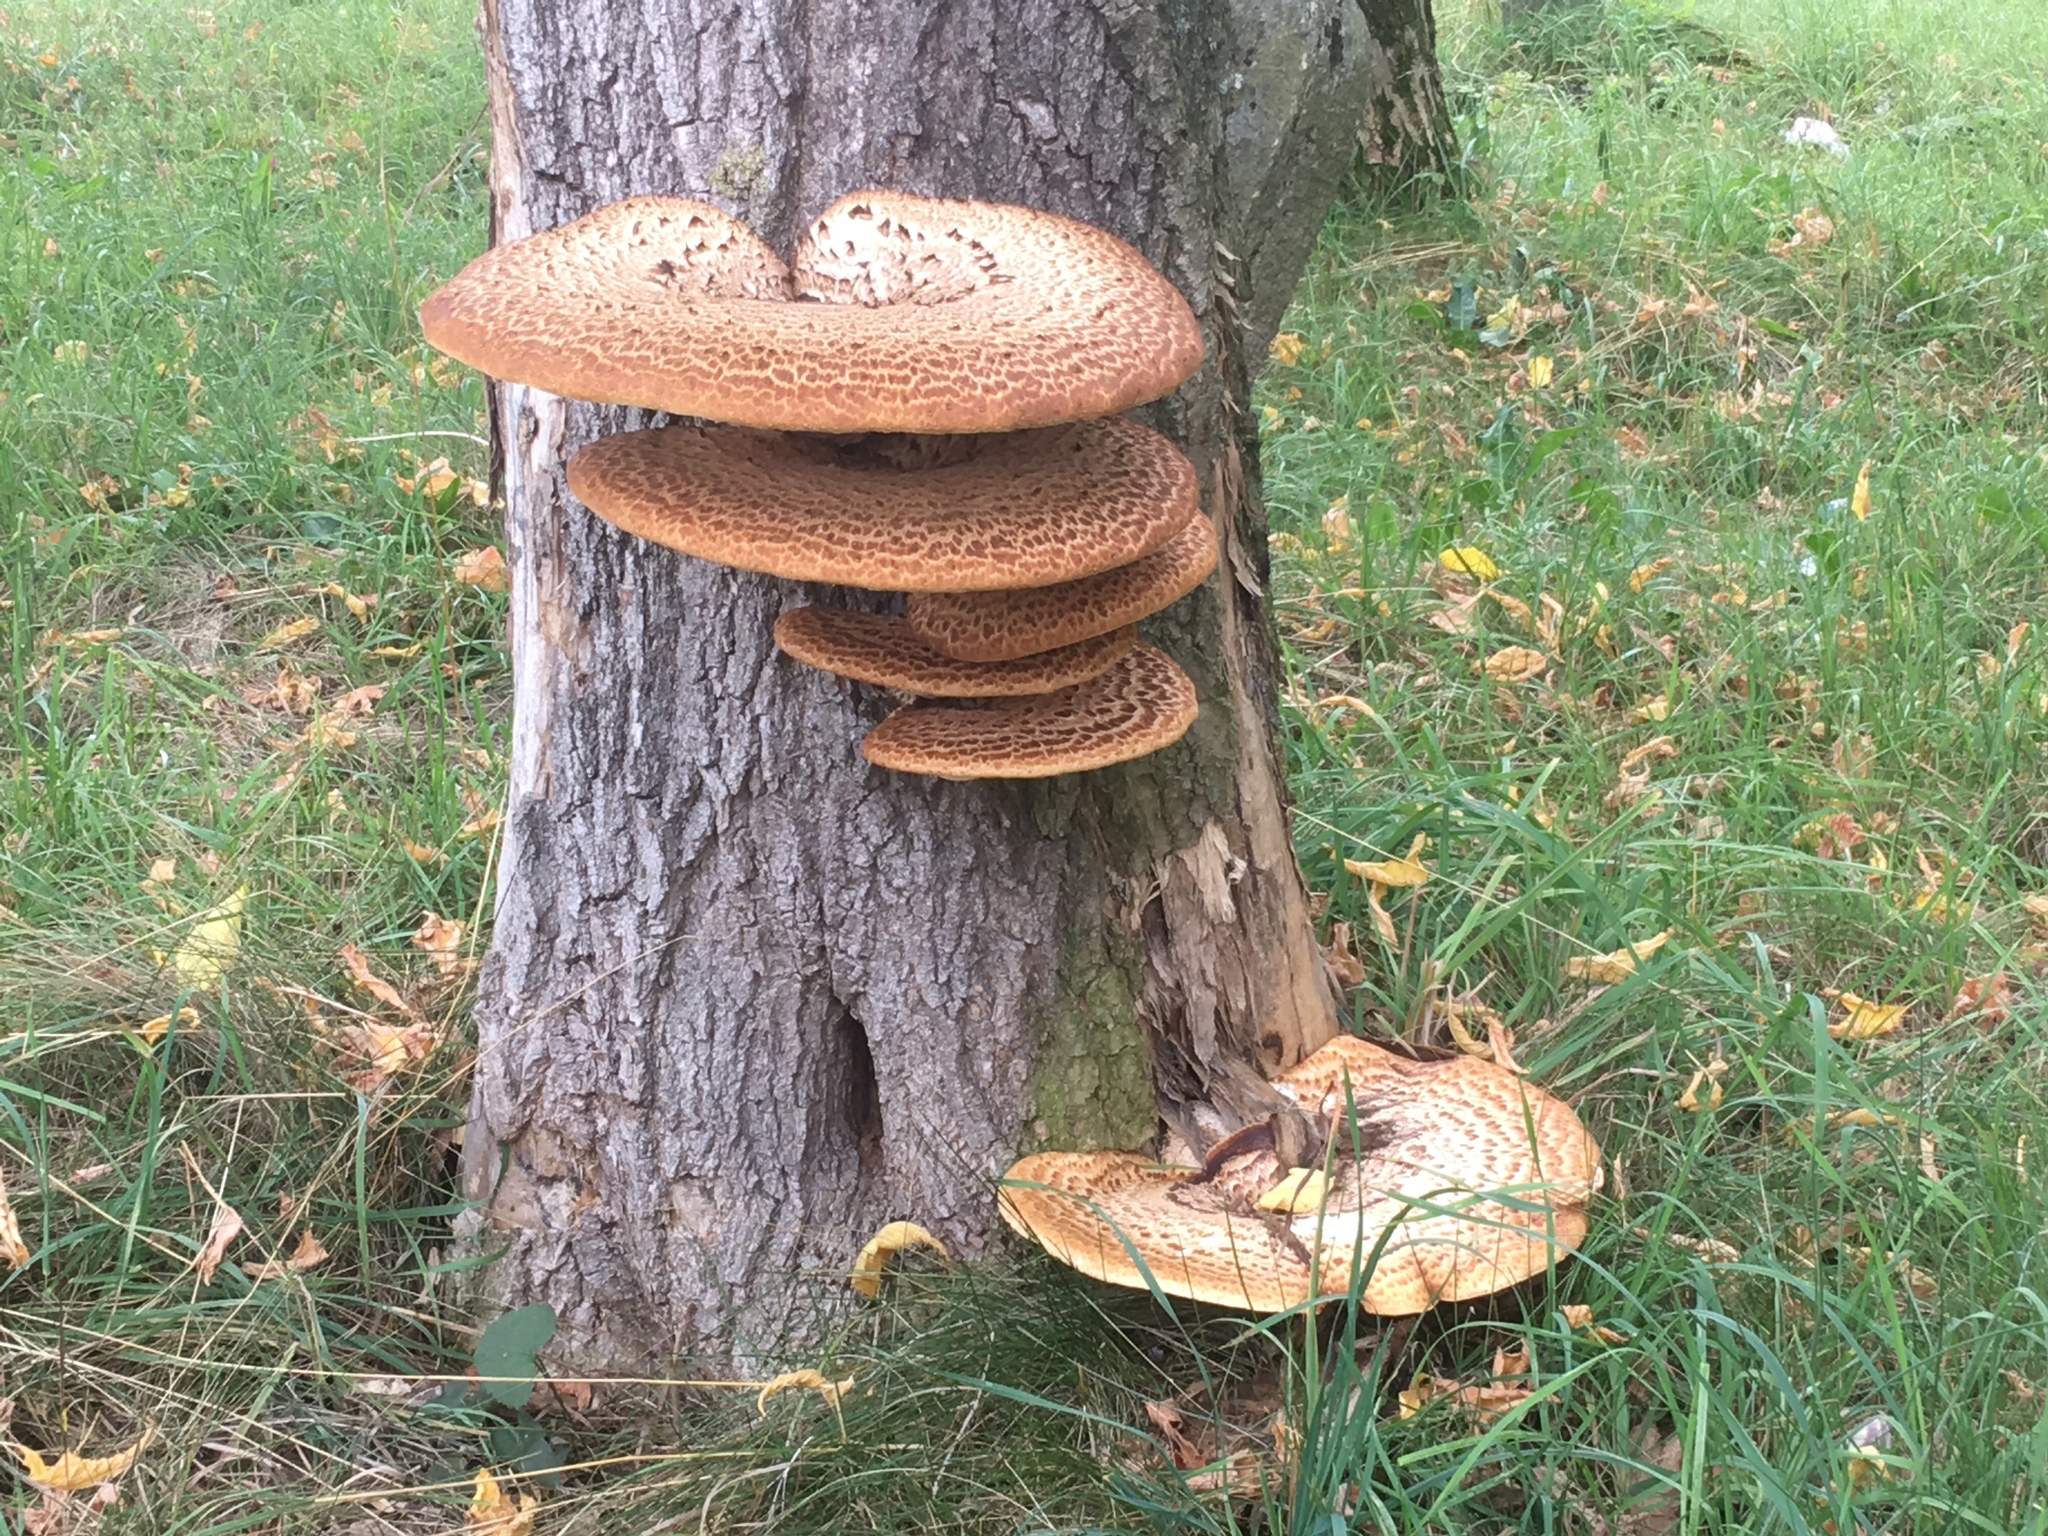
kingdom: Fungi
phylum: Basidiomycota
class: Agaricomycetes
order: Polyporales
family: Polyporaceae
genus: Cerioporus
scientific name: Cerioporus squamosus
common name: Dryad's saddle
